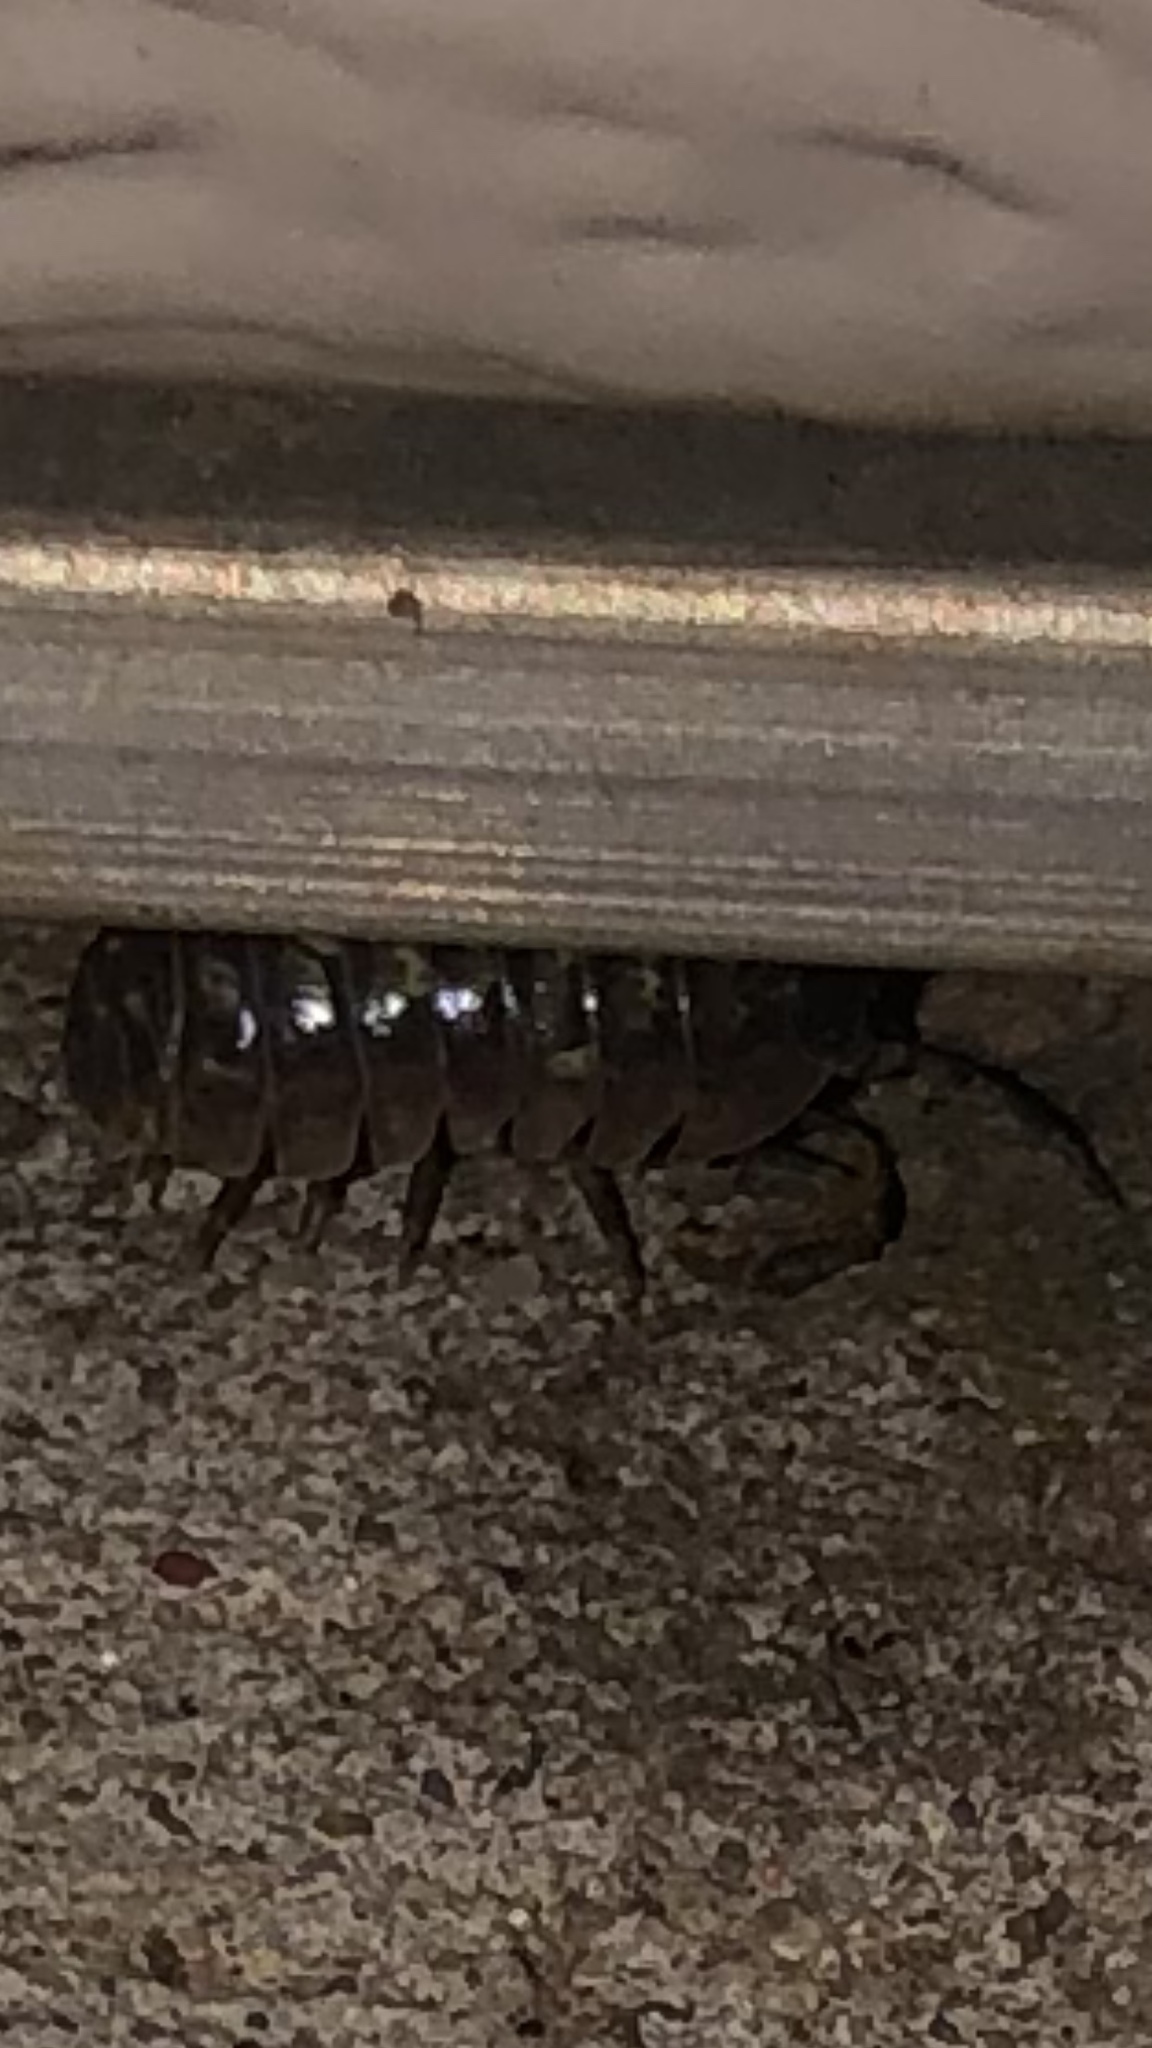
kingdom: Animalia
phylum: Arthropoda
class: Malacostraca
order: Isopoda
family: Armadillidiidae
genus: Armadillidium
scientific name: Armadillidium vulgare
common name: Common pill woodlouse
